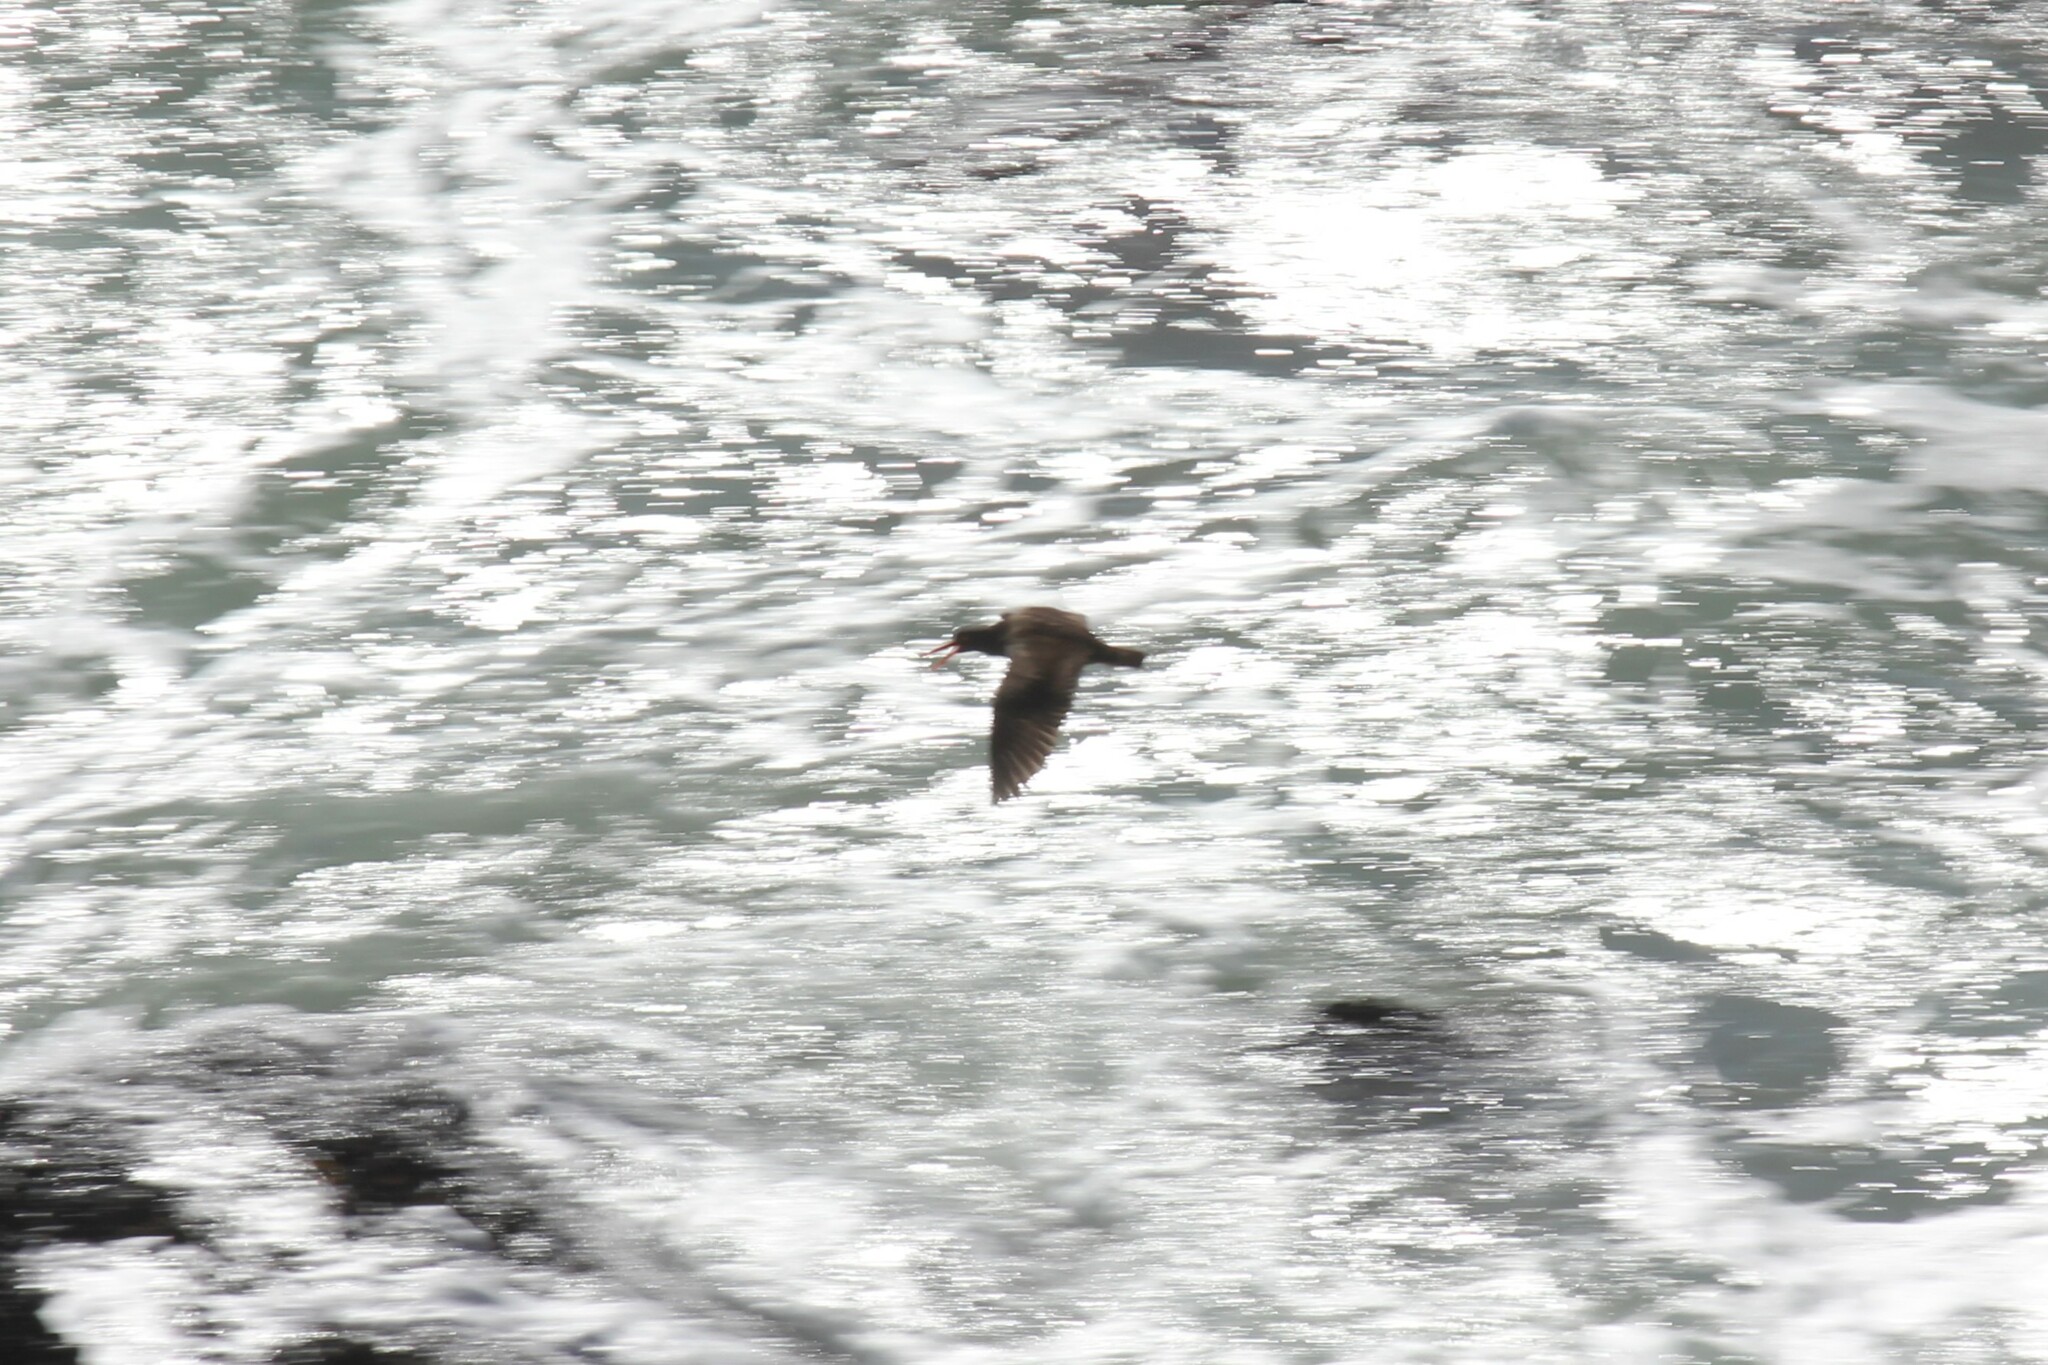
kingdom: Animalia
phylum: Chordata
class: Aves
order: Charadriiformes
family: Haematopodidae
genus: Haematopus
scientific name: Haematopus bachmani
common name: Black oystercatcher
